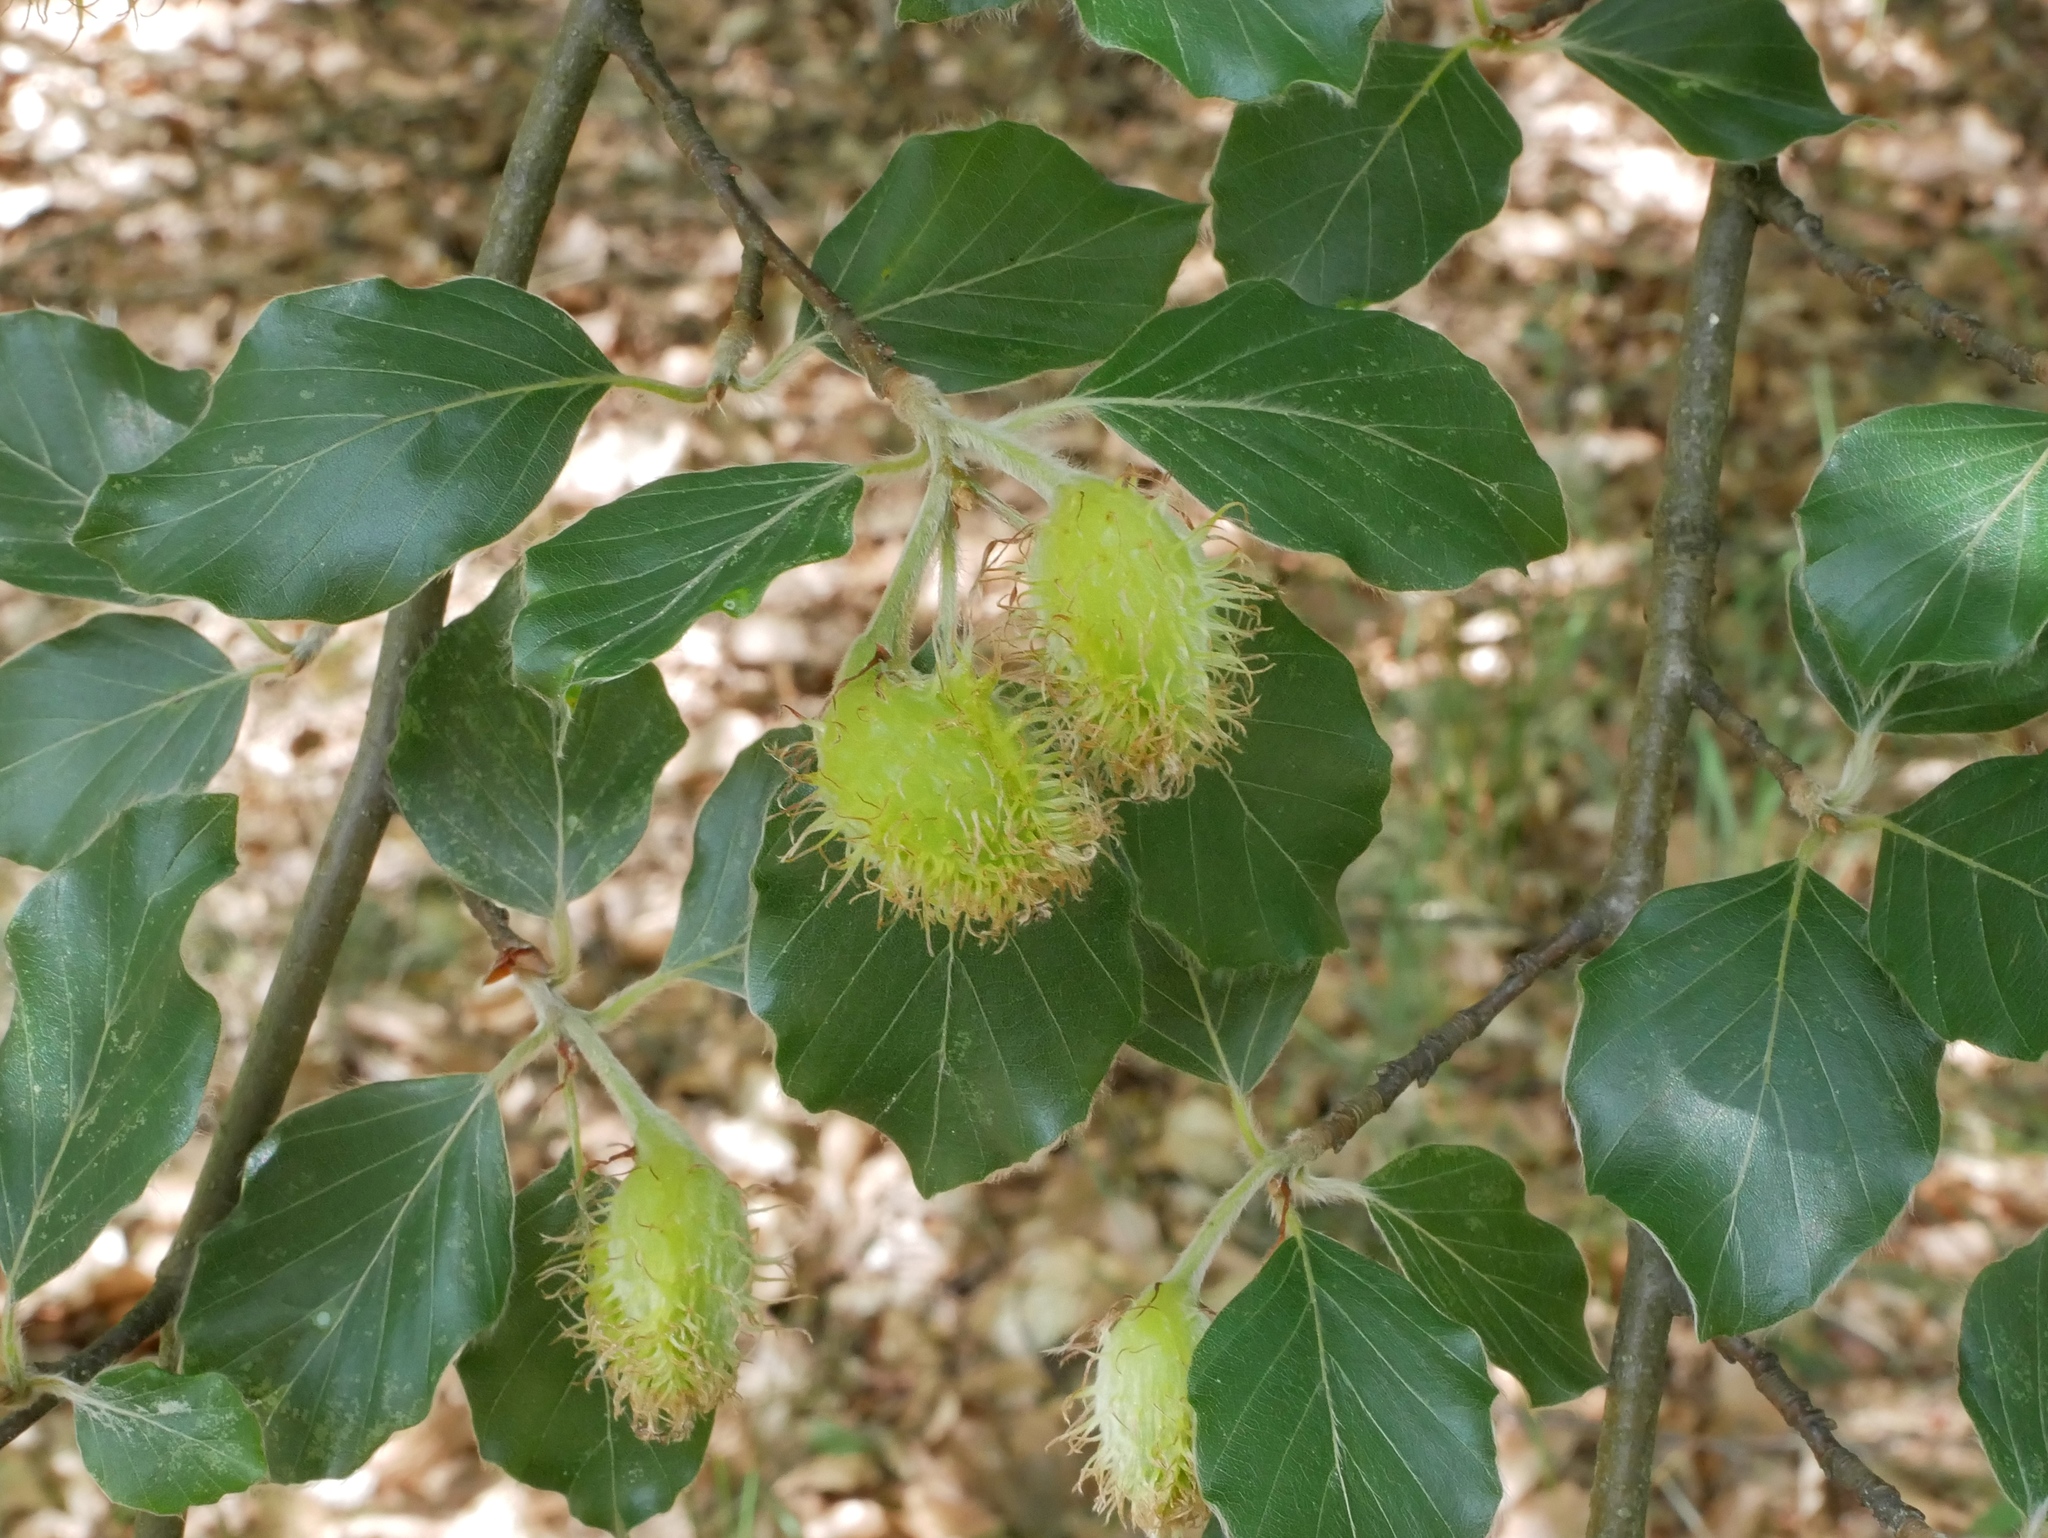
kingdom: Plantae
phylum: Tracheophyta
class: Magnoliopsida
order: Fagales
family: Fagaceae
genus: Fagus
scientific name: Fagus sylvatica
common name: Beech
